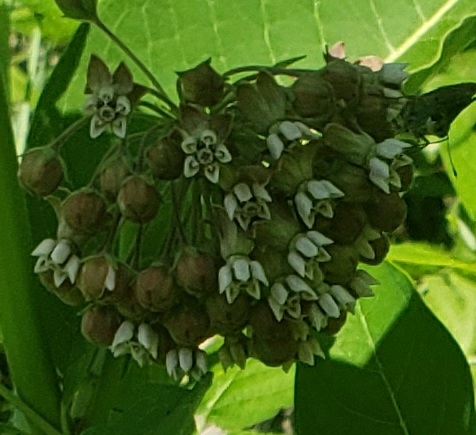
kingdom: Plantae
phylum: Tracheophyta
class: Magnoliopsida
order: Gentianales
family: Apocynaceae
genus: Asclepias
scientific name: Asclepias syriaca
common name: Common milkweed
